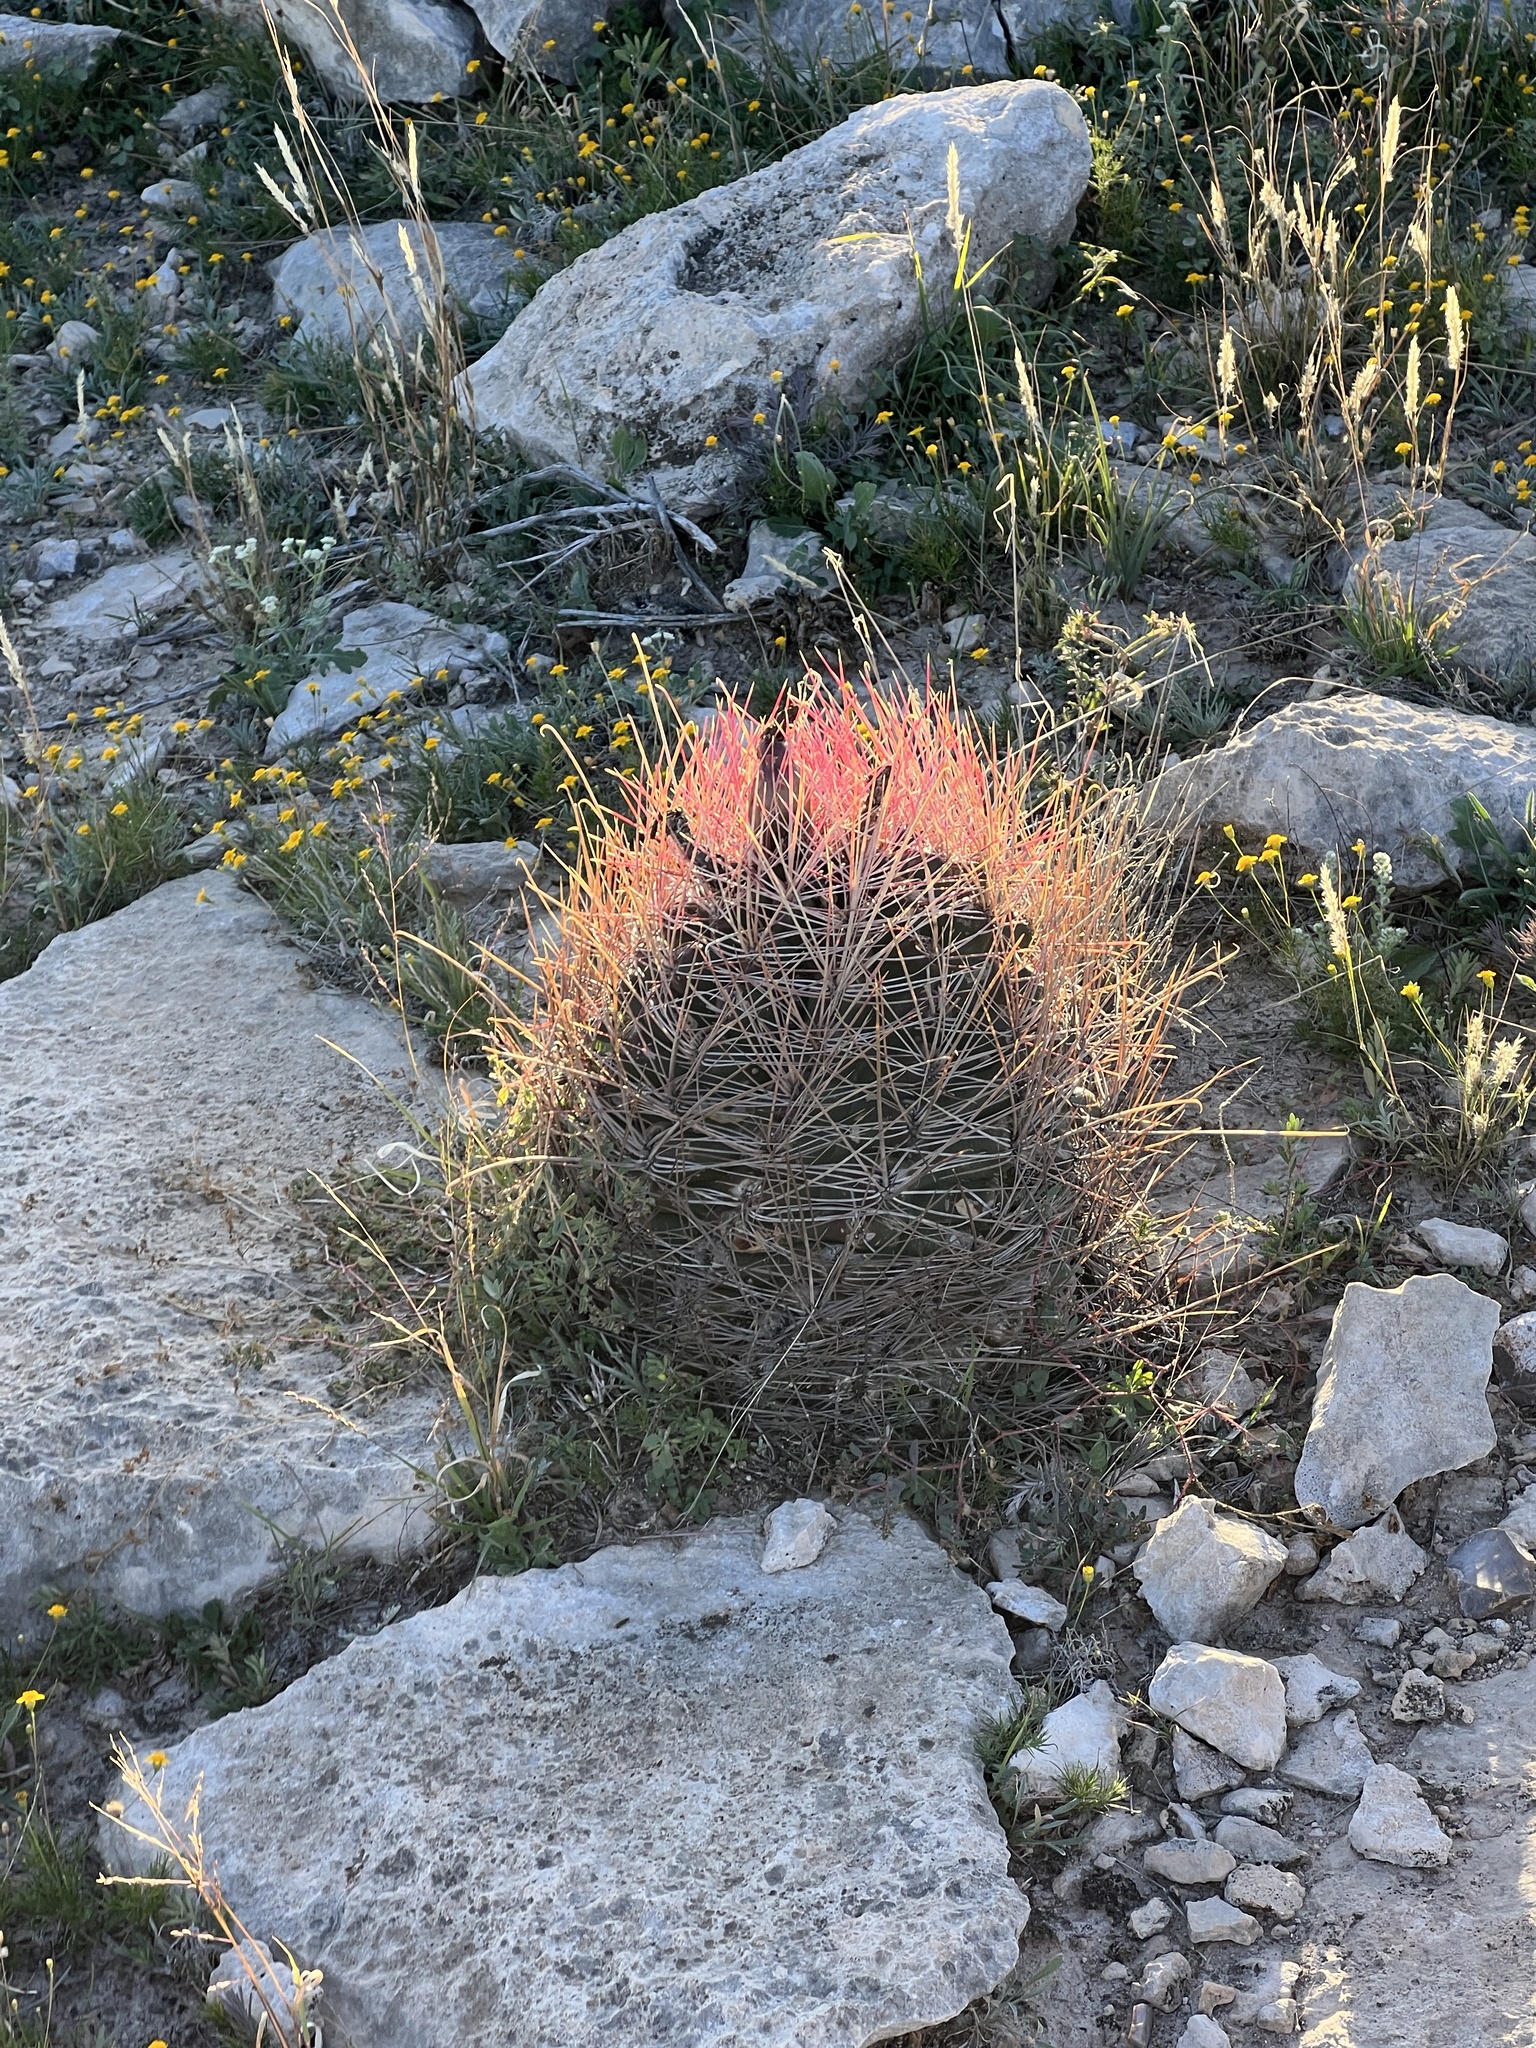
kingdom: Plantae
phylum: Tracheophyta
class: Magnoliopsida
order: Caryophyllales
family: Cactaceae
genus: Bisnaga
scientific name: Bisnaga hamatacantha
